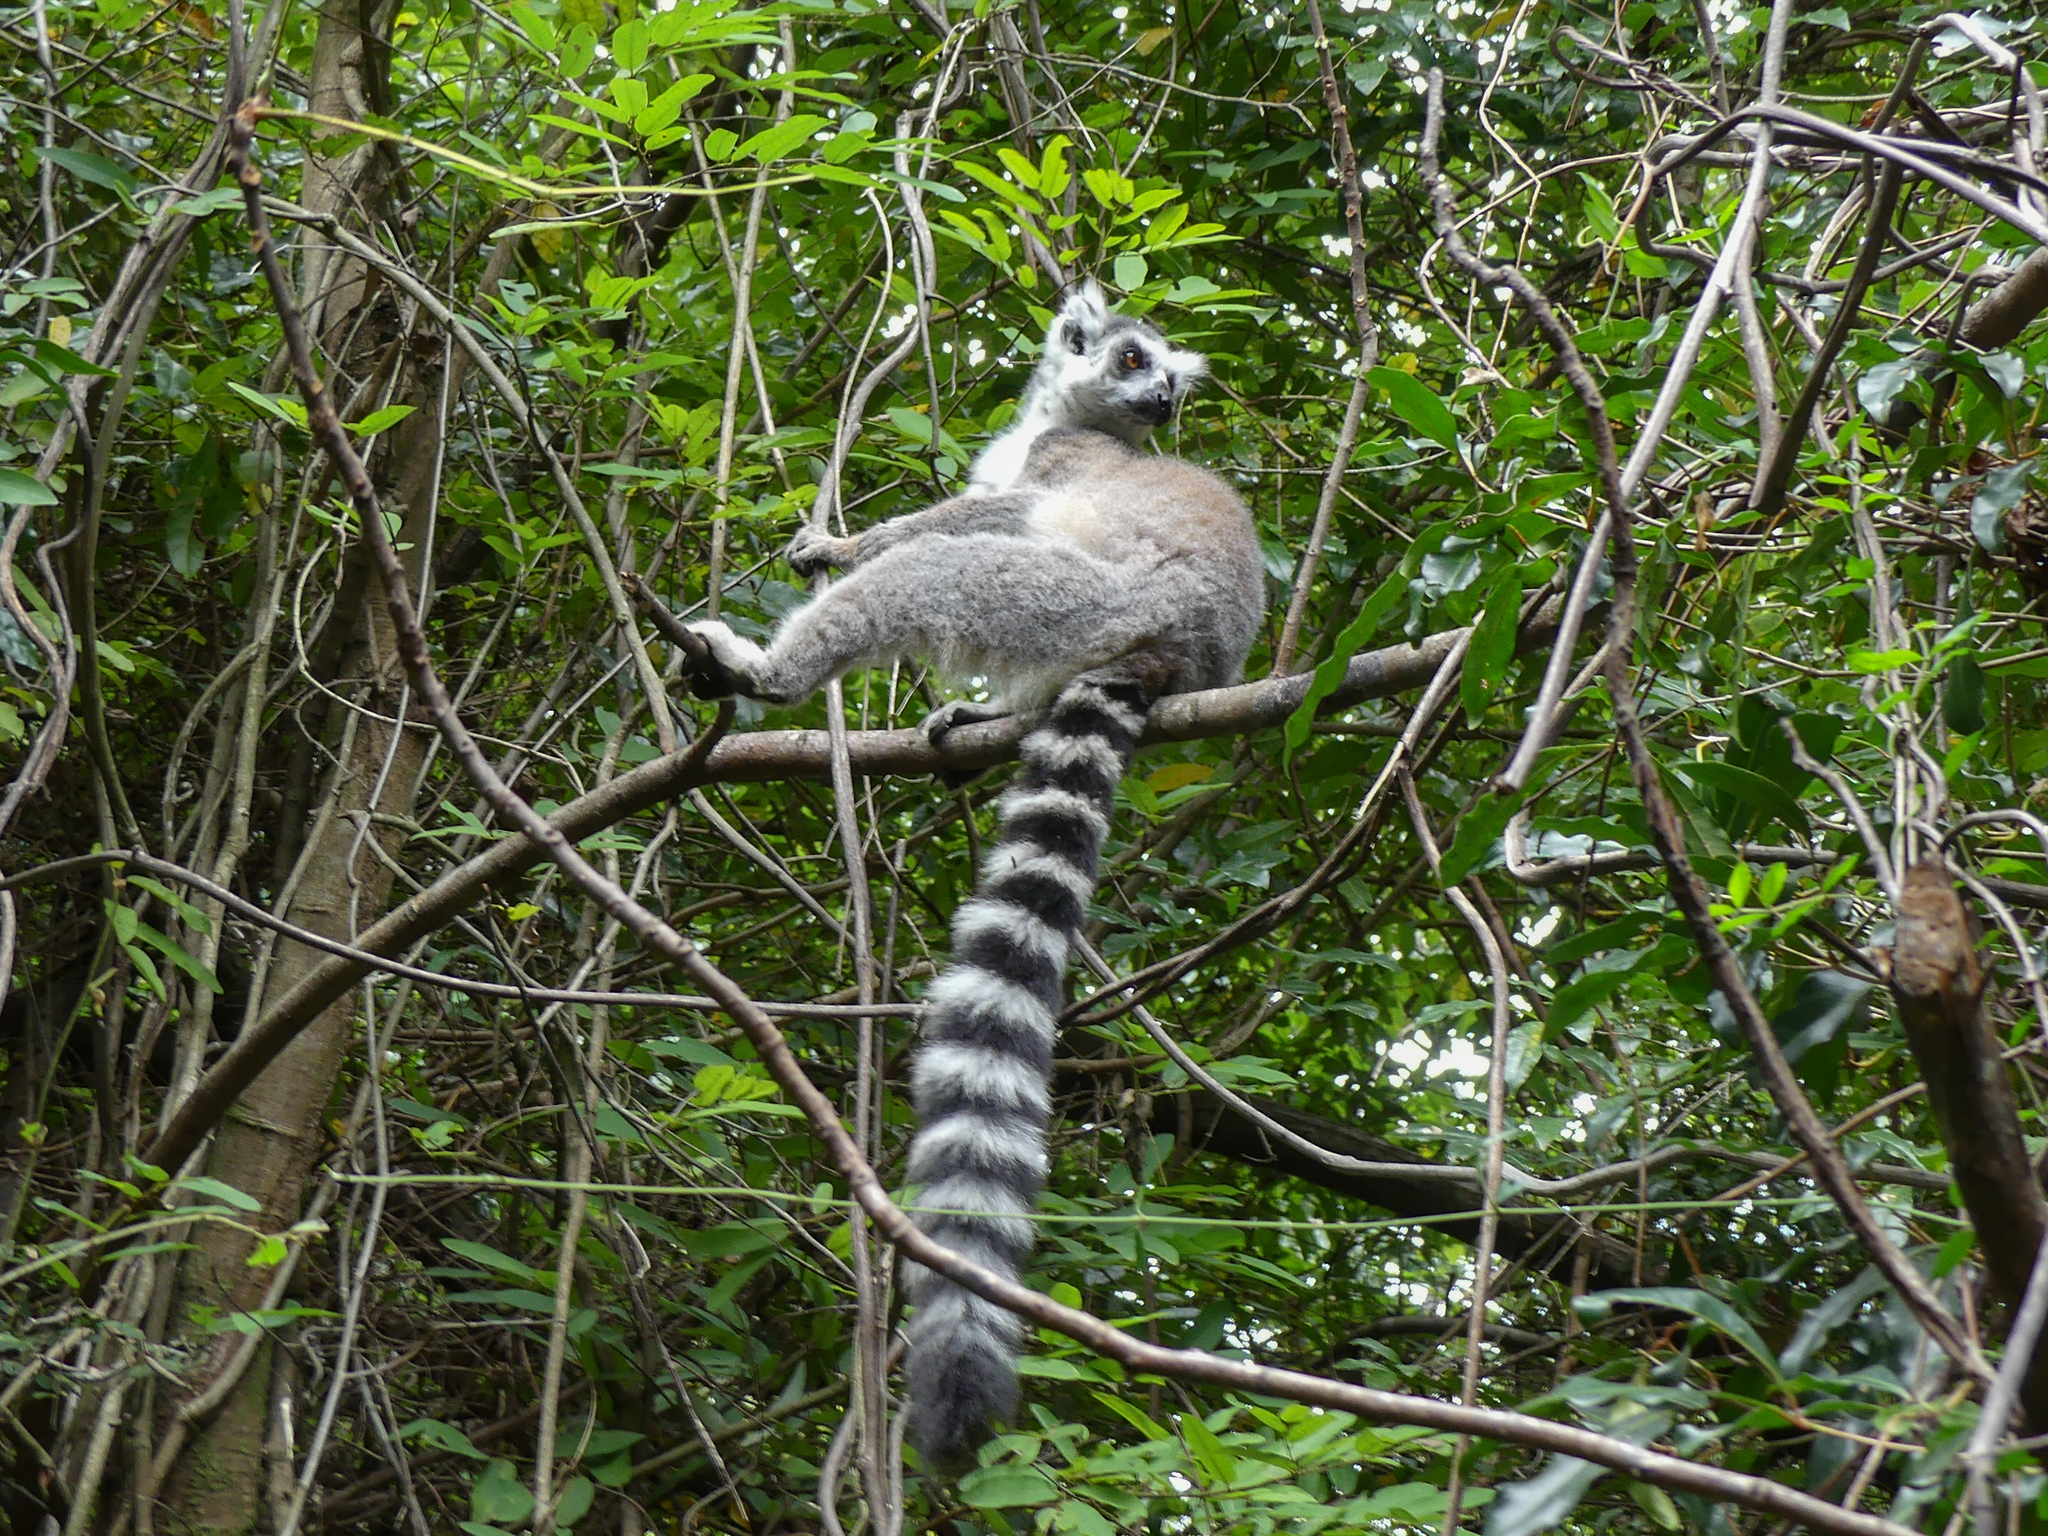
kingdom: Animalia
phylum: Chordata
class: Mammalia
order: Primates
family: Lemuridae
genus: Lemur
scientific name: Lemur catta
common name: Ring-tailed lemur
